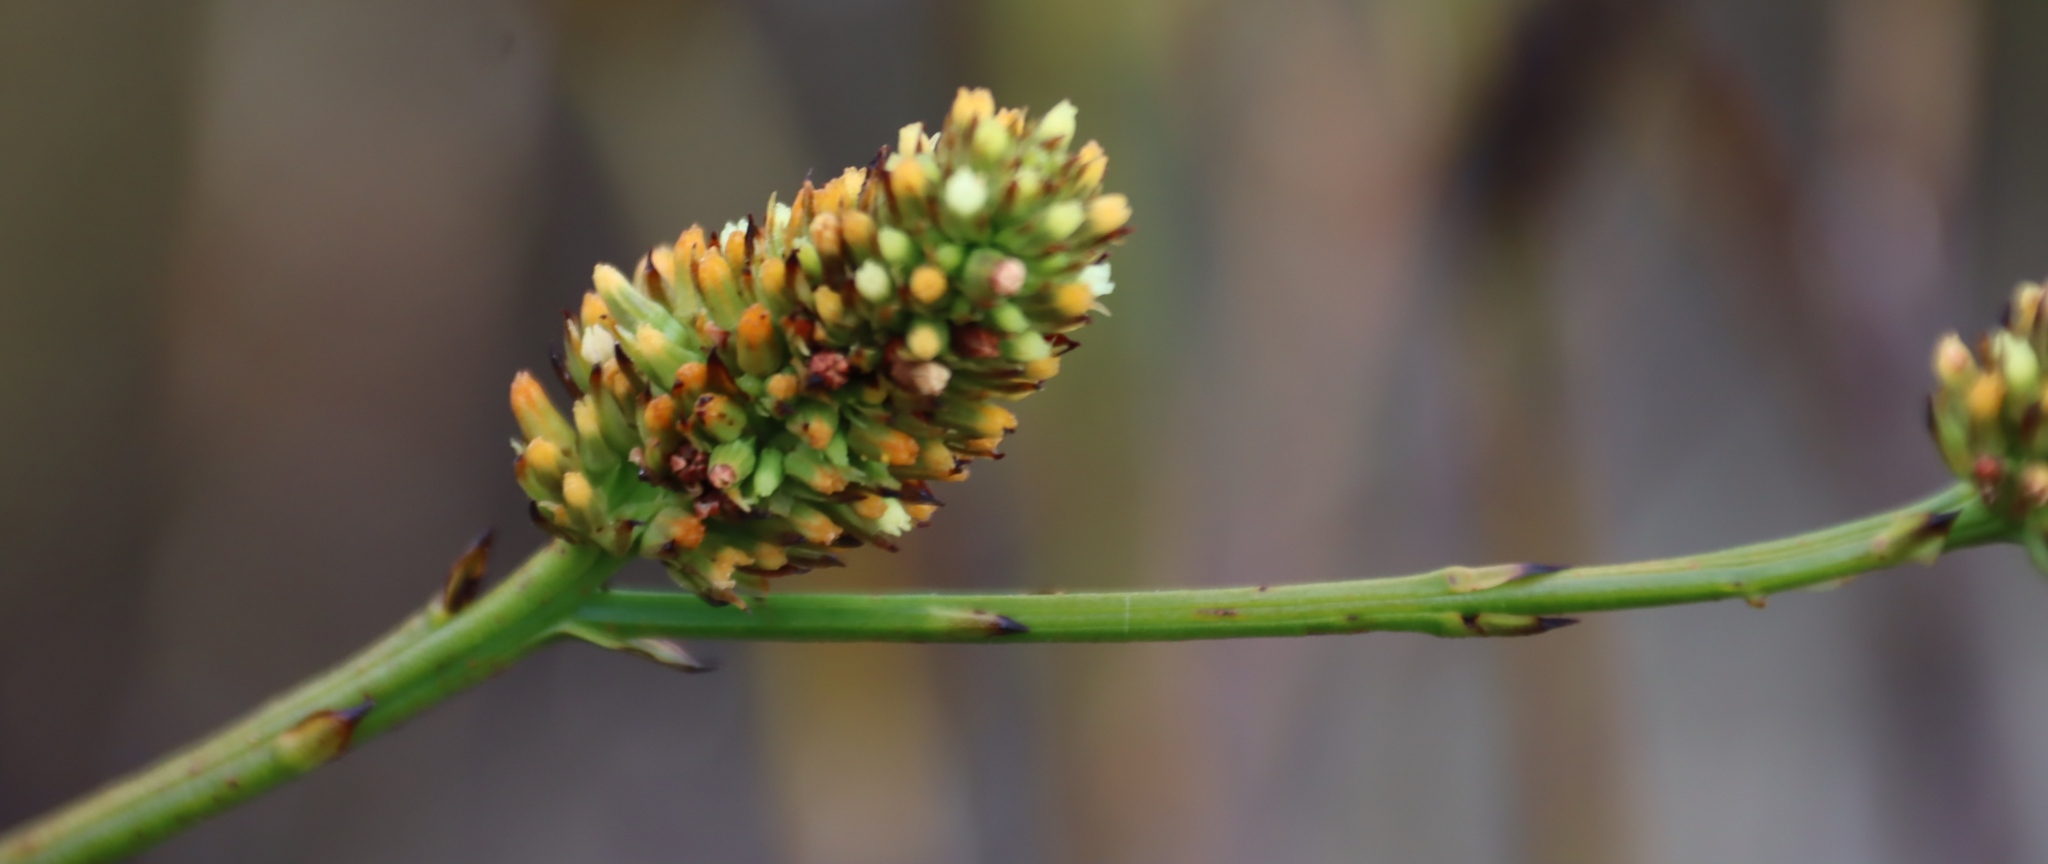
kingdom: Plantae
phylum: Tracheophyta
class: Magnoliopsida
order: Santalales
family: Thesiaceae
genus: Thesium
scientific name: Thesium spicatum
